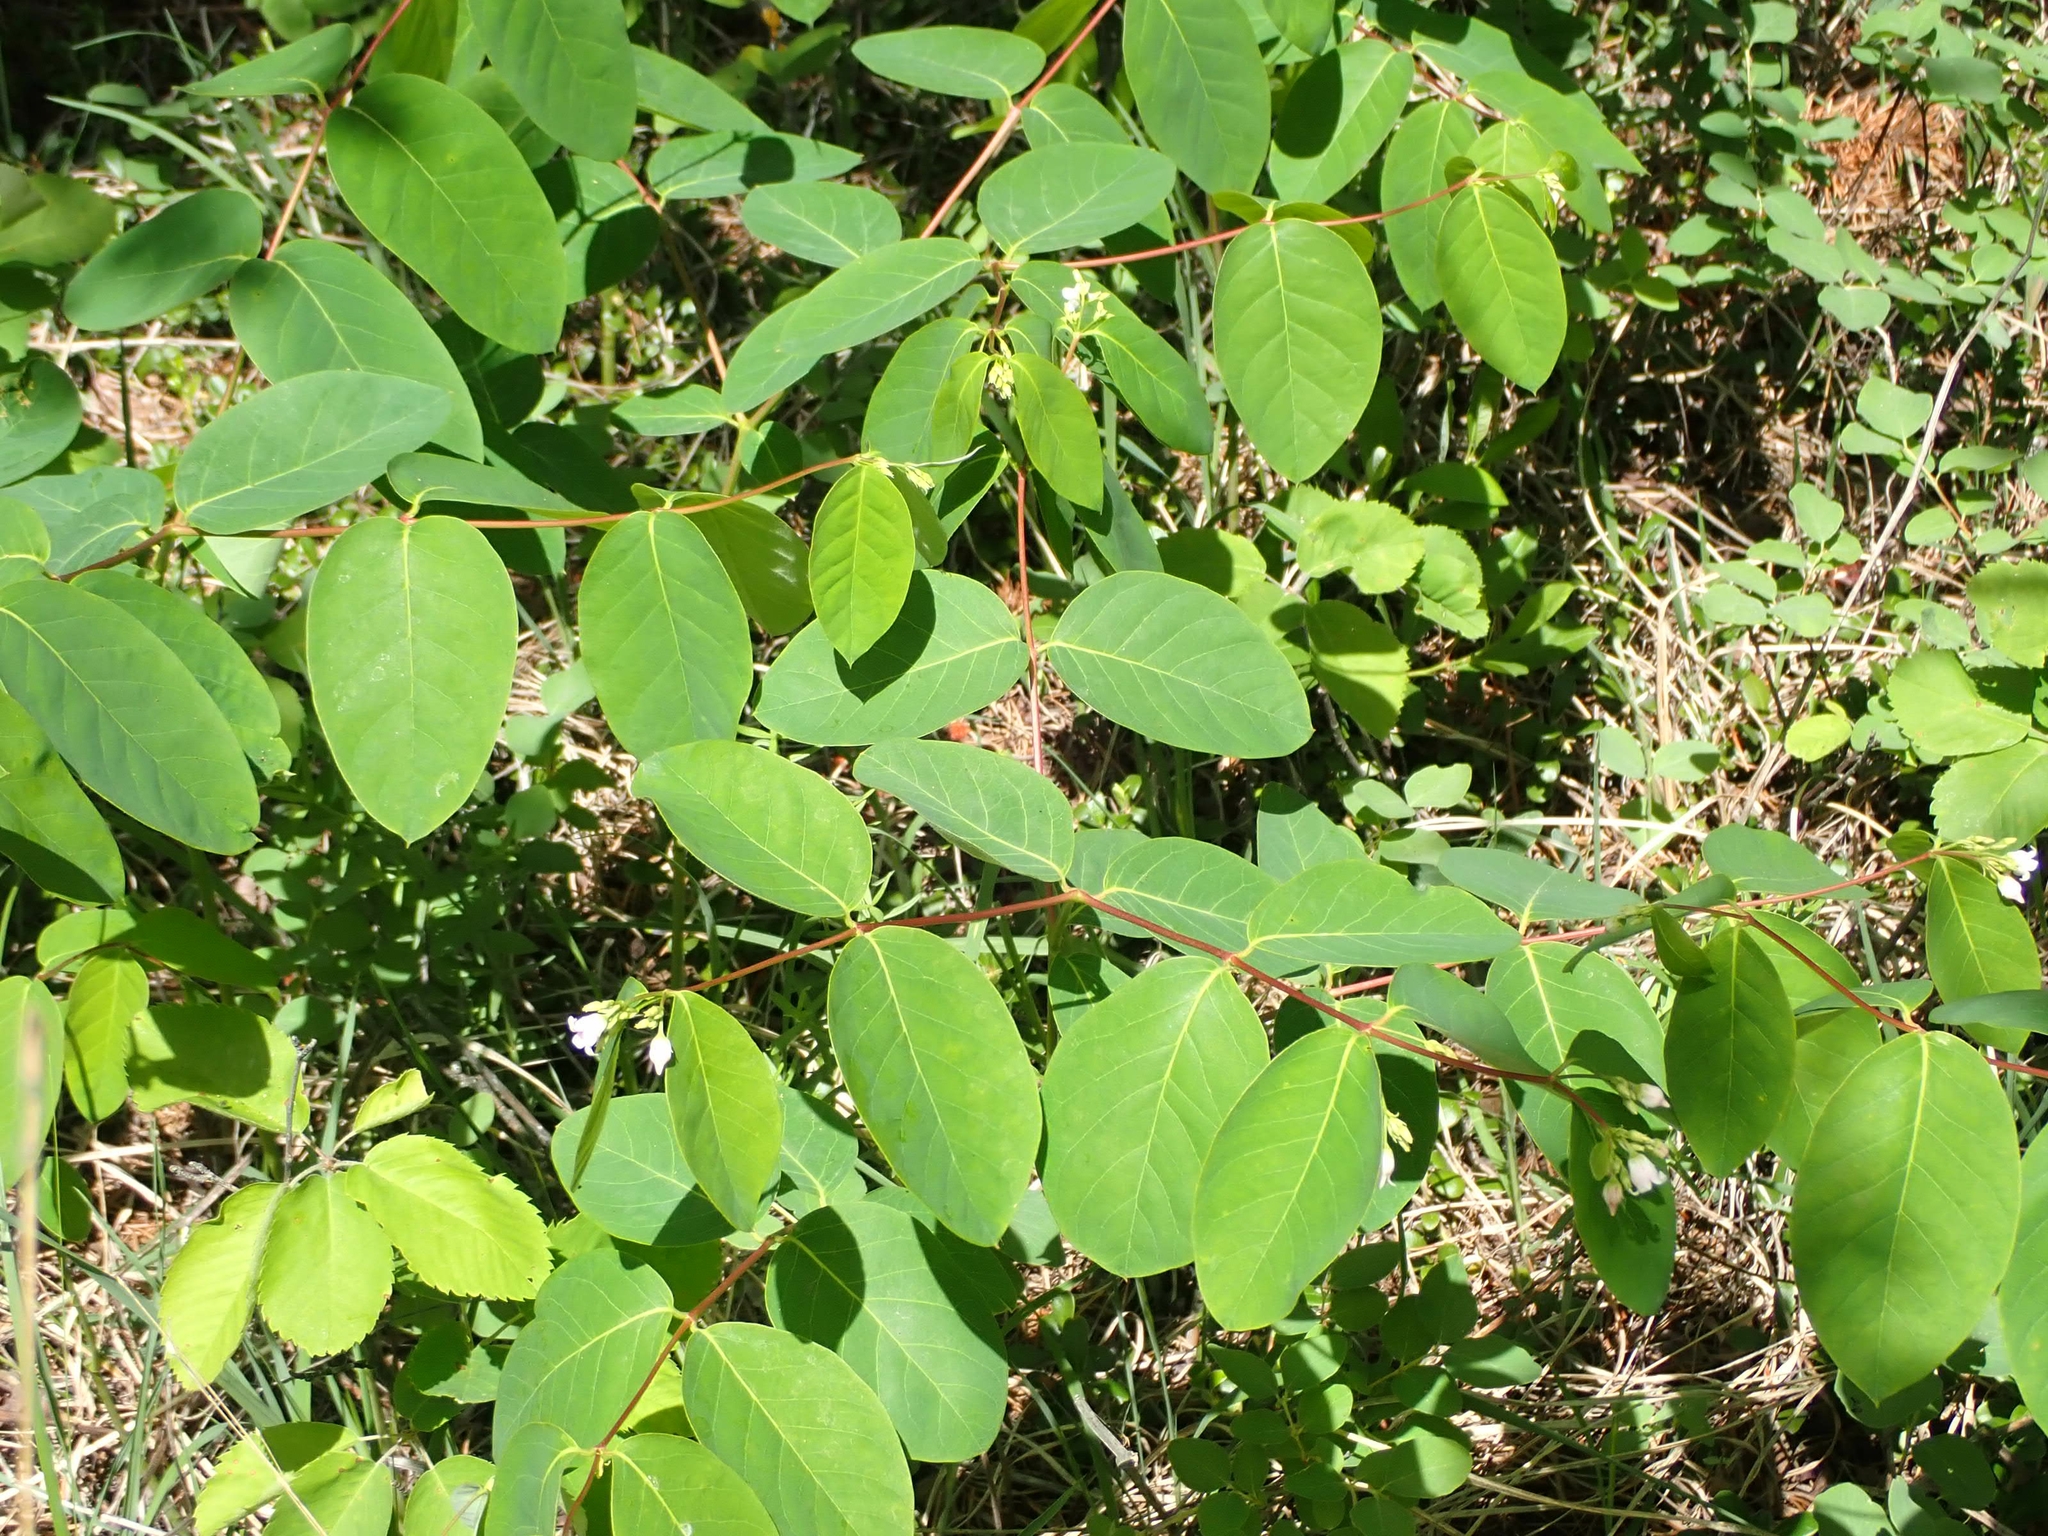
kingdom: Plantae
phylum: Tracheophyta
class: Magnoliopsida
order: Gentianales
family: Apocynaceae
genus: Apocynum
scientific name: Apocynum androsaemifolium
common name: Spreading dogbane
